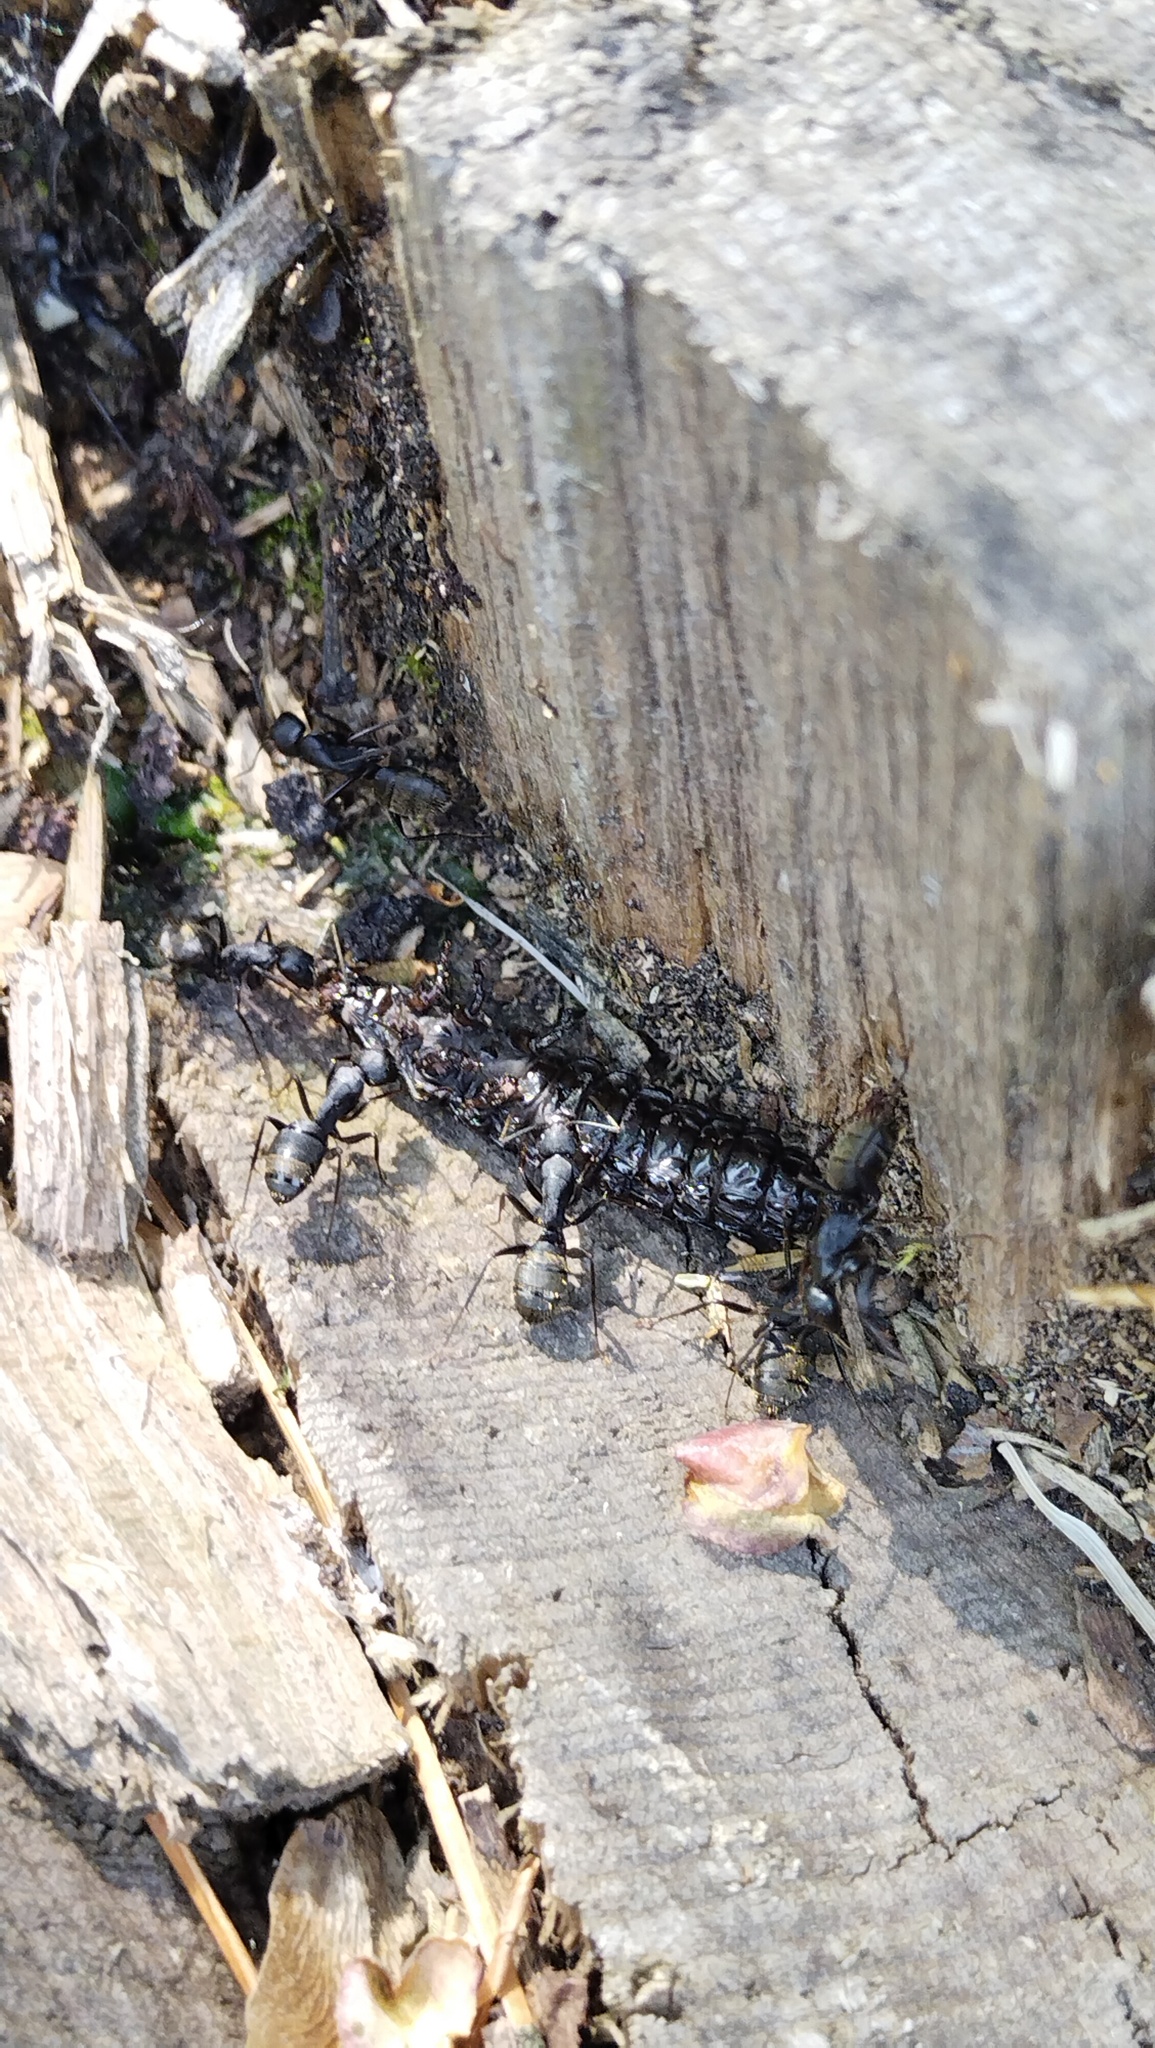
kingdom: Animalia
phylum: Arthropoda
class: Insecta
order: Hymenoptera
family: Formicidae
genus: Camponotus
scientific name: Camponotus japonicus
